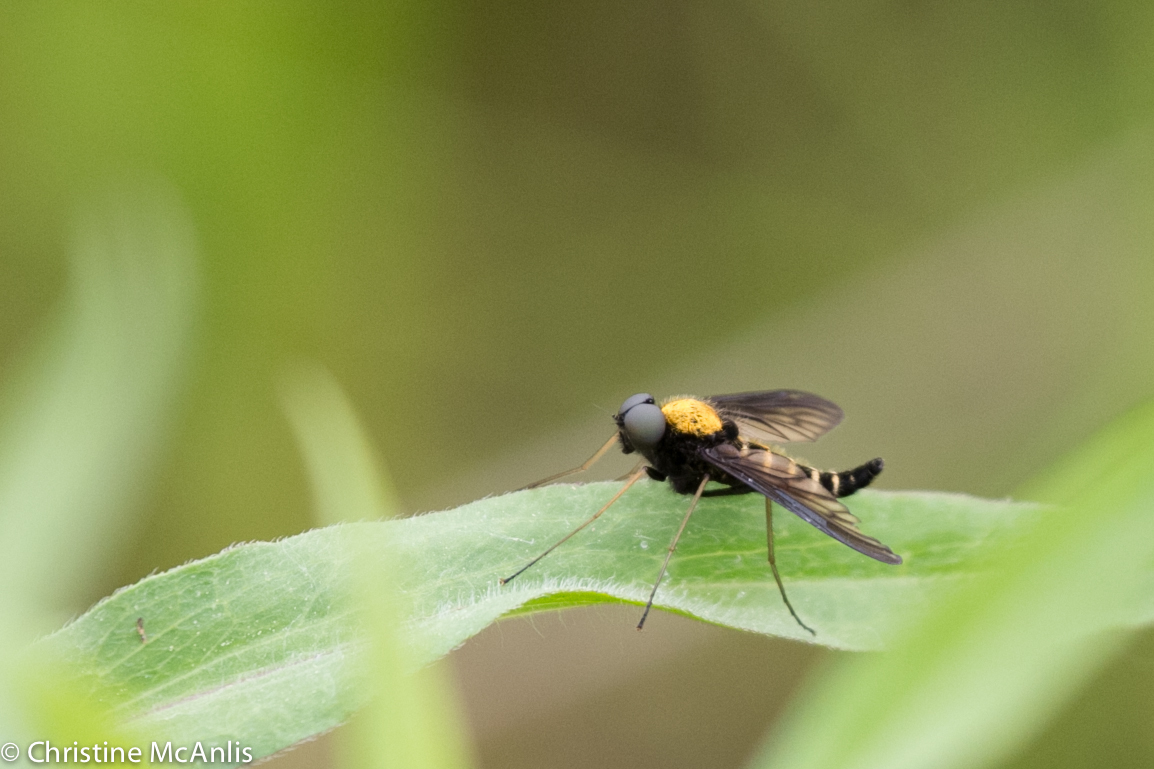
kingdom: Animalia
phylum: Arthropoda
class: Insecta
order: Diptera
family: Rhagionidae
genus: Chrysopilus
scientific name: Chrysopilus thoracicus
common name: Golden-backed snipe fly
